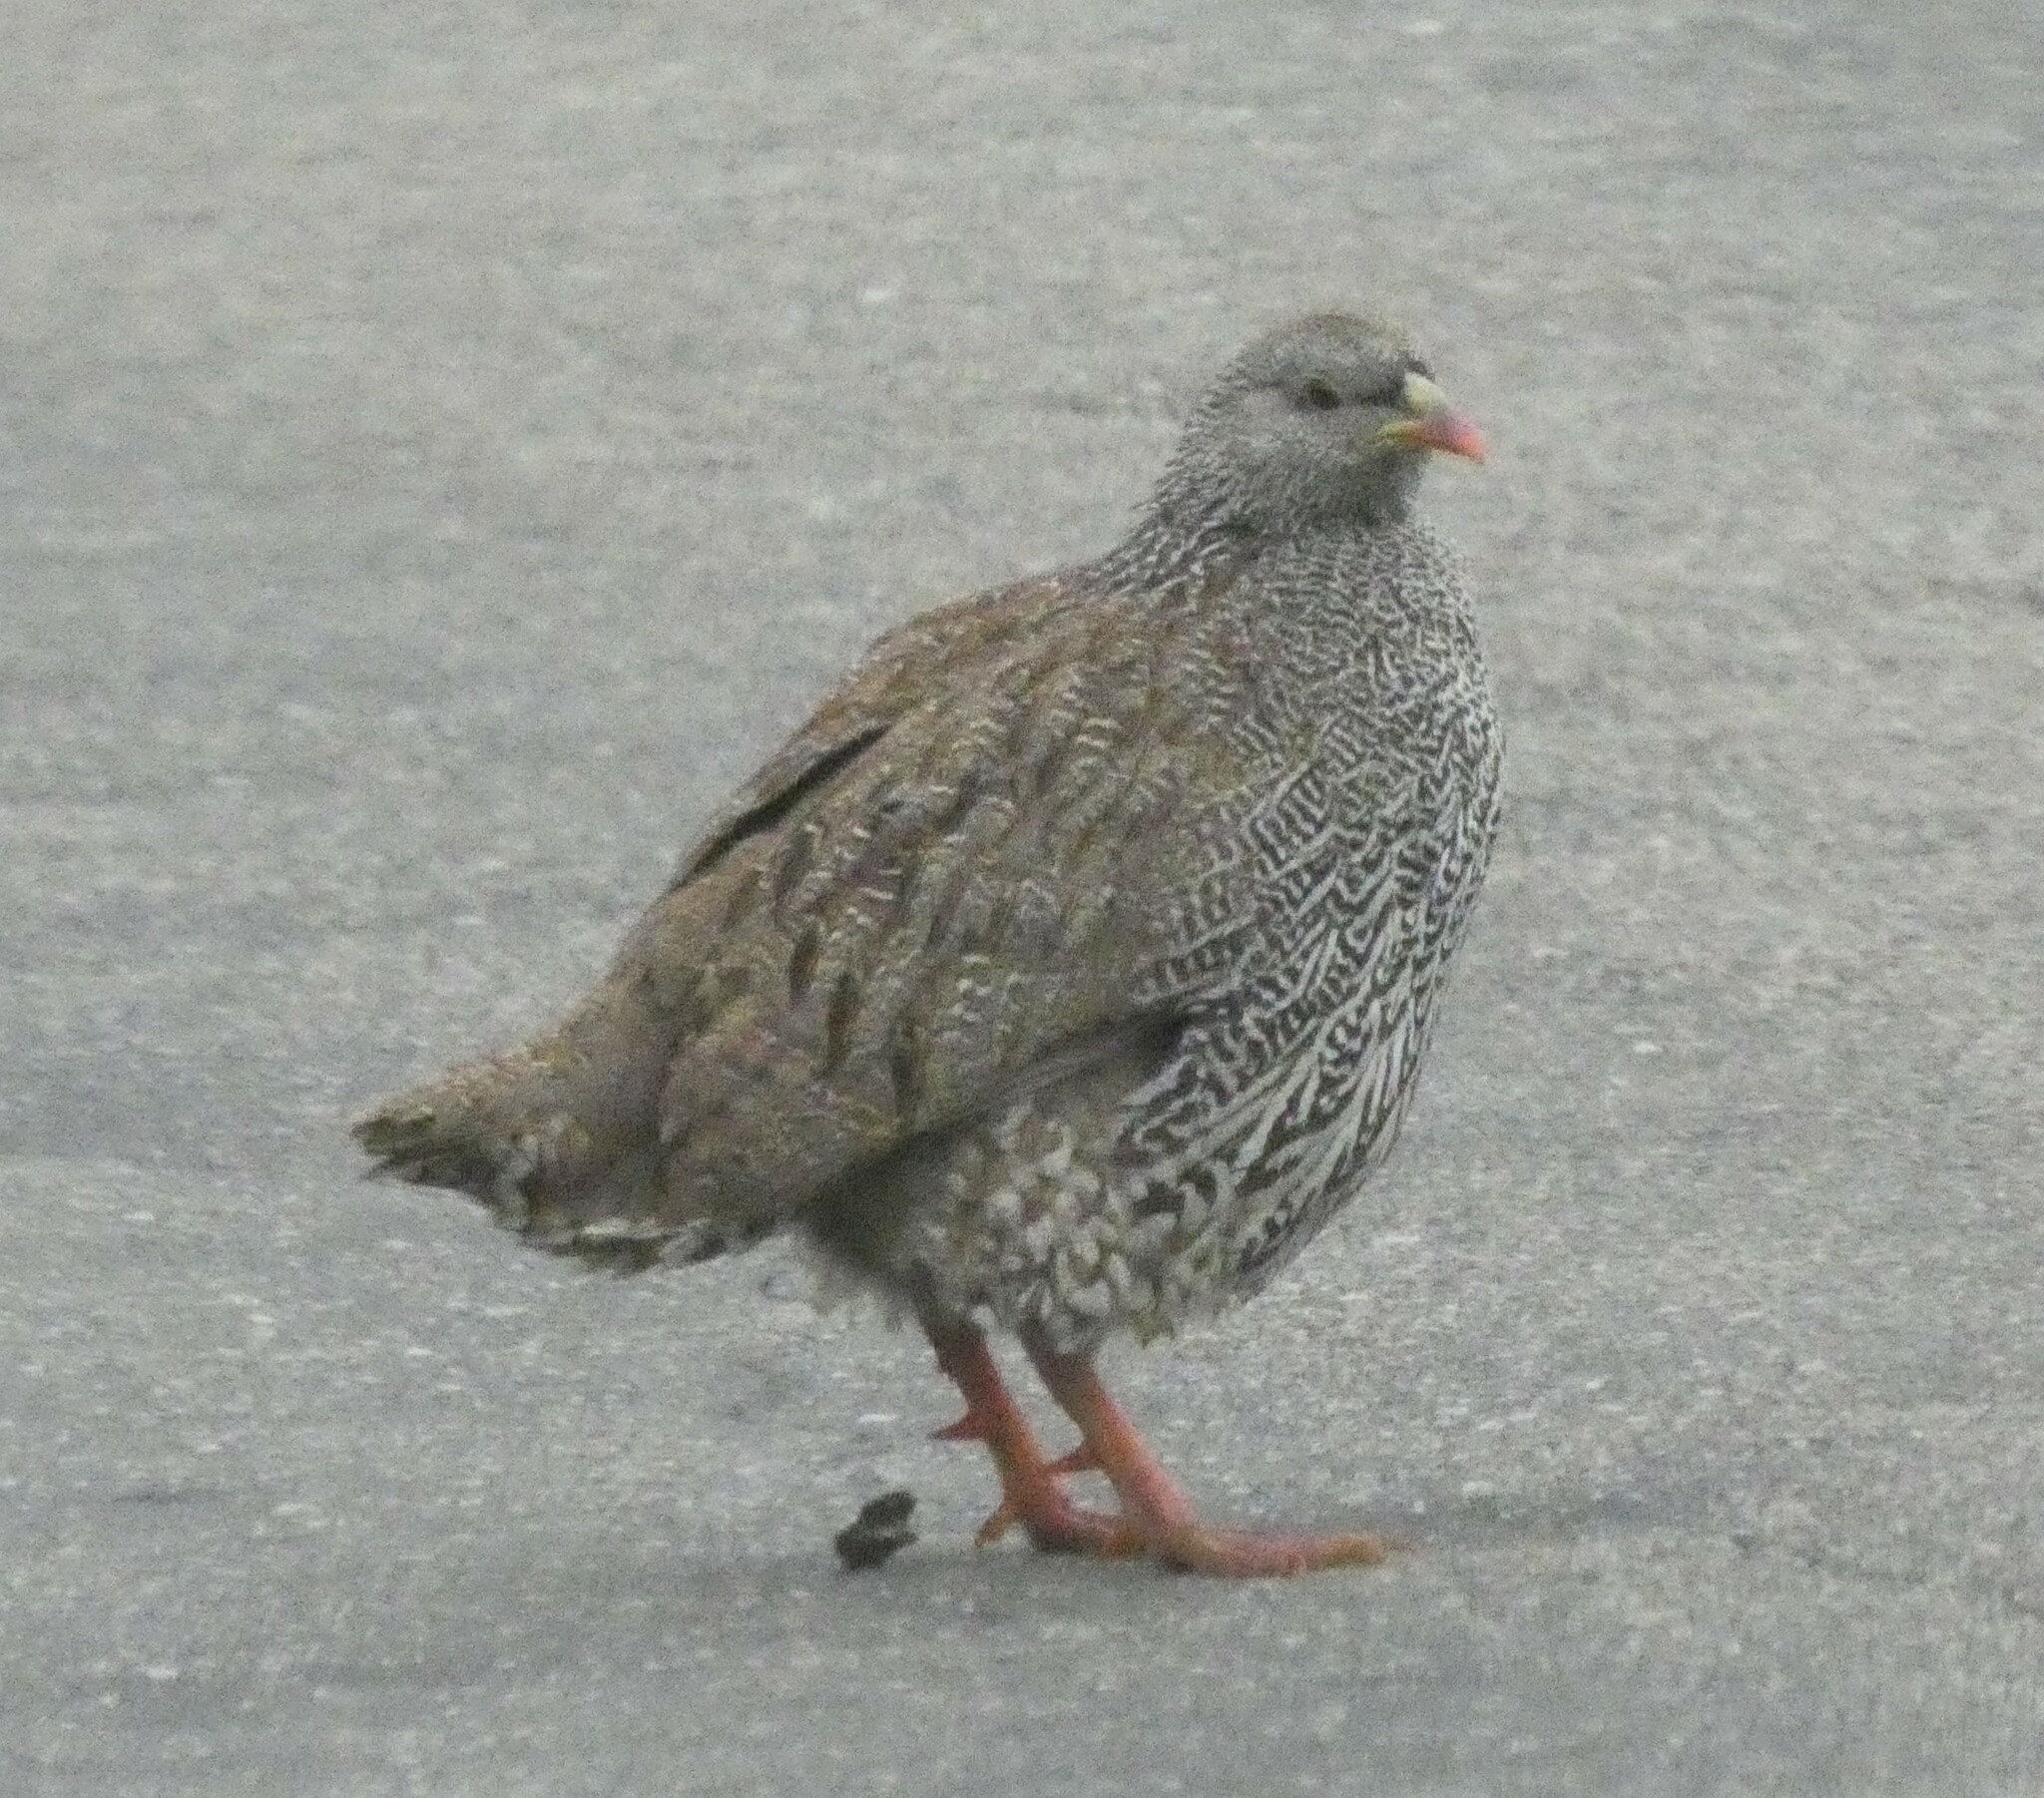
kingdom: Animalia
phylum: Chordata
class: Aves
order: Galliformes
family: Phasianidae
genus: Pternistis
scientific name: Pternistis natalensis
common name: Natal spurfowl
